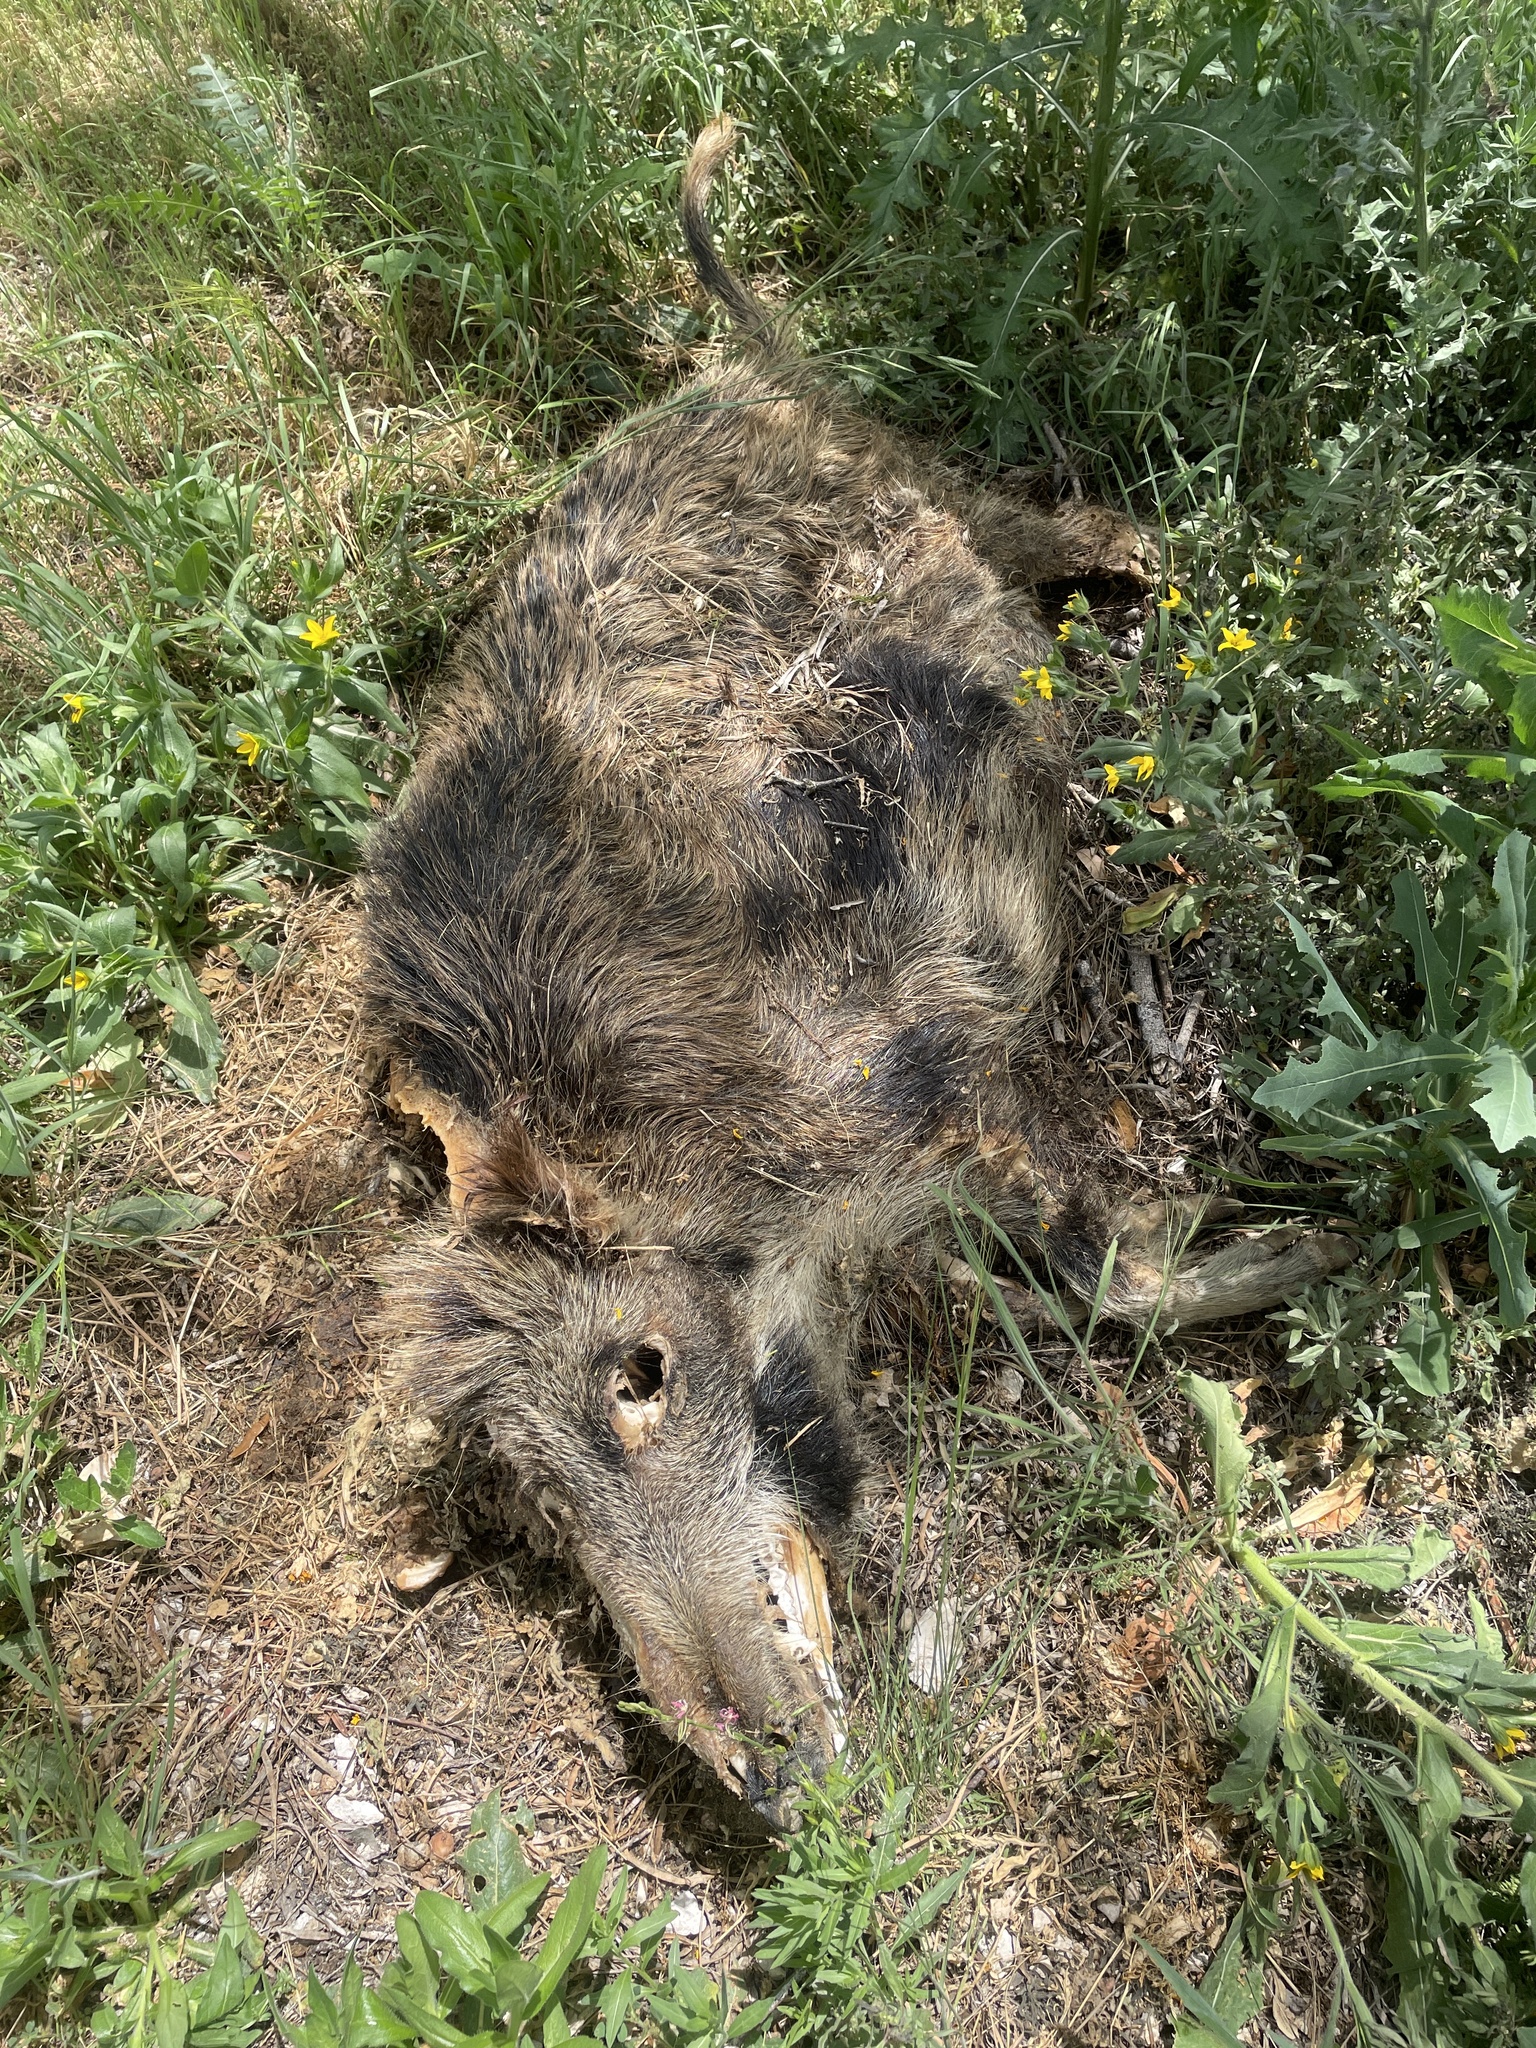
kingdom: Animalia
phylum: Chordata
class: Mammalia
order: Artiodactyla
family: Suidae
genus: Sus
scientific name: Sus scrofa
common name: Wild boar
